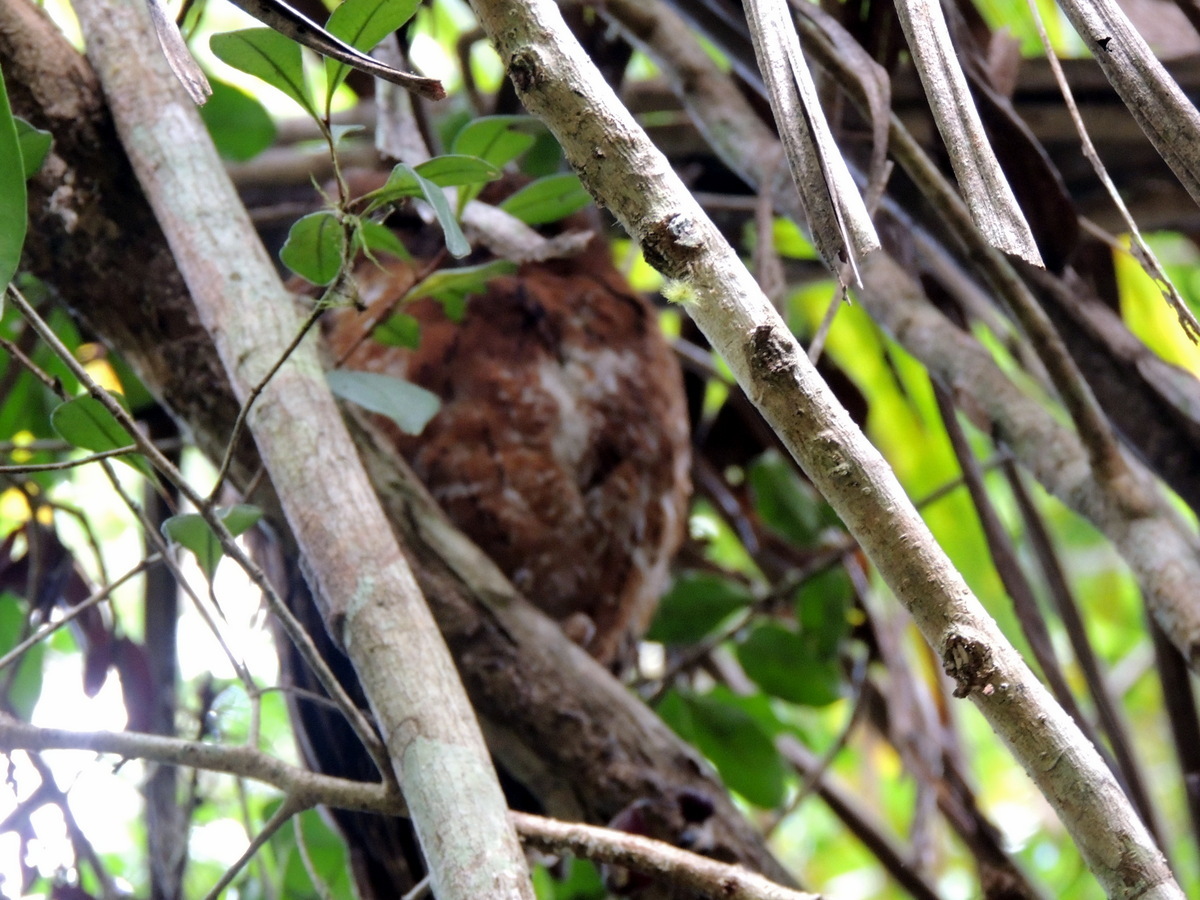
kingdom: Animalia
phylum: Chordata
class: Aves
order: Strigiformes
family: Strigidae
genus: Otus
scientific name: Otus rutilus
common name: Rainforest scops owl
